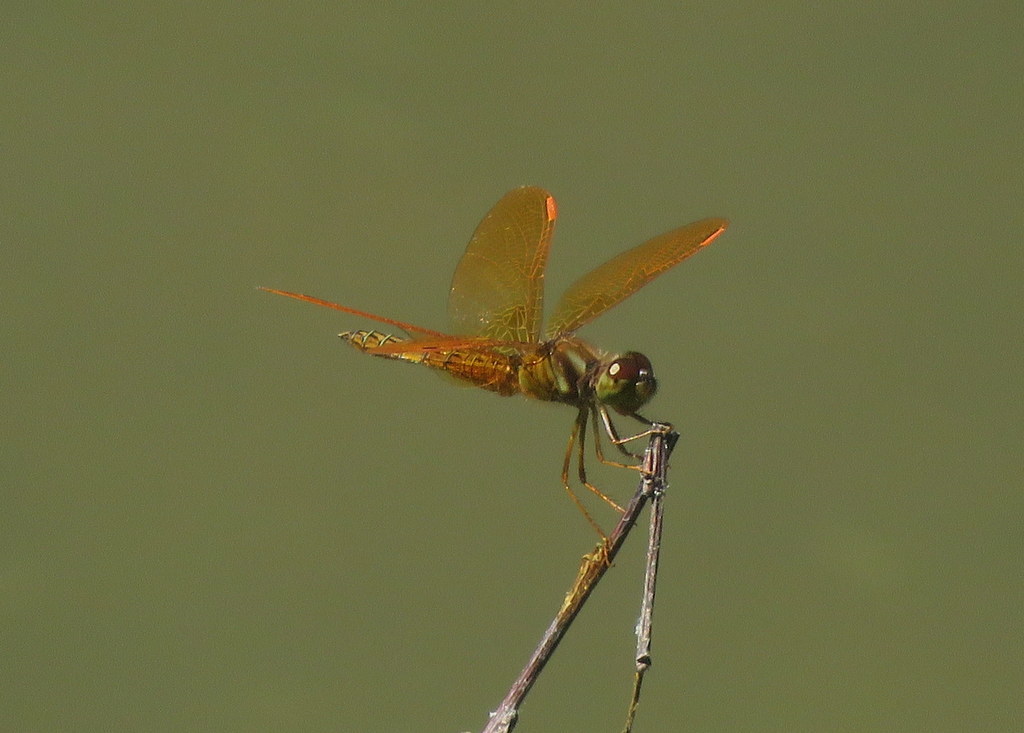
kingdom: Animalia
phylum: Arthropoda
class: Insecta
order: Odonata
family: Libellulidae
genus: Perithemis
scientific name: Perithemis tenera
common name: Eastern amberwing
